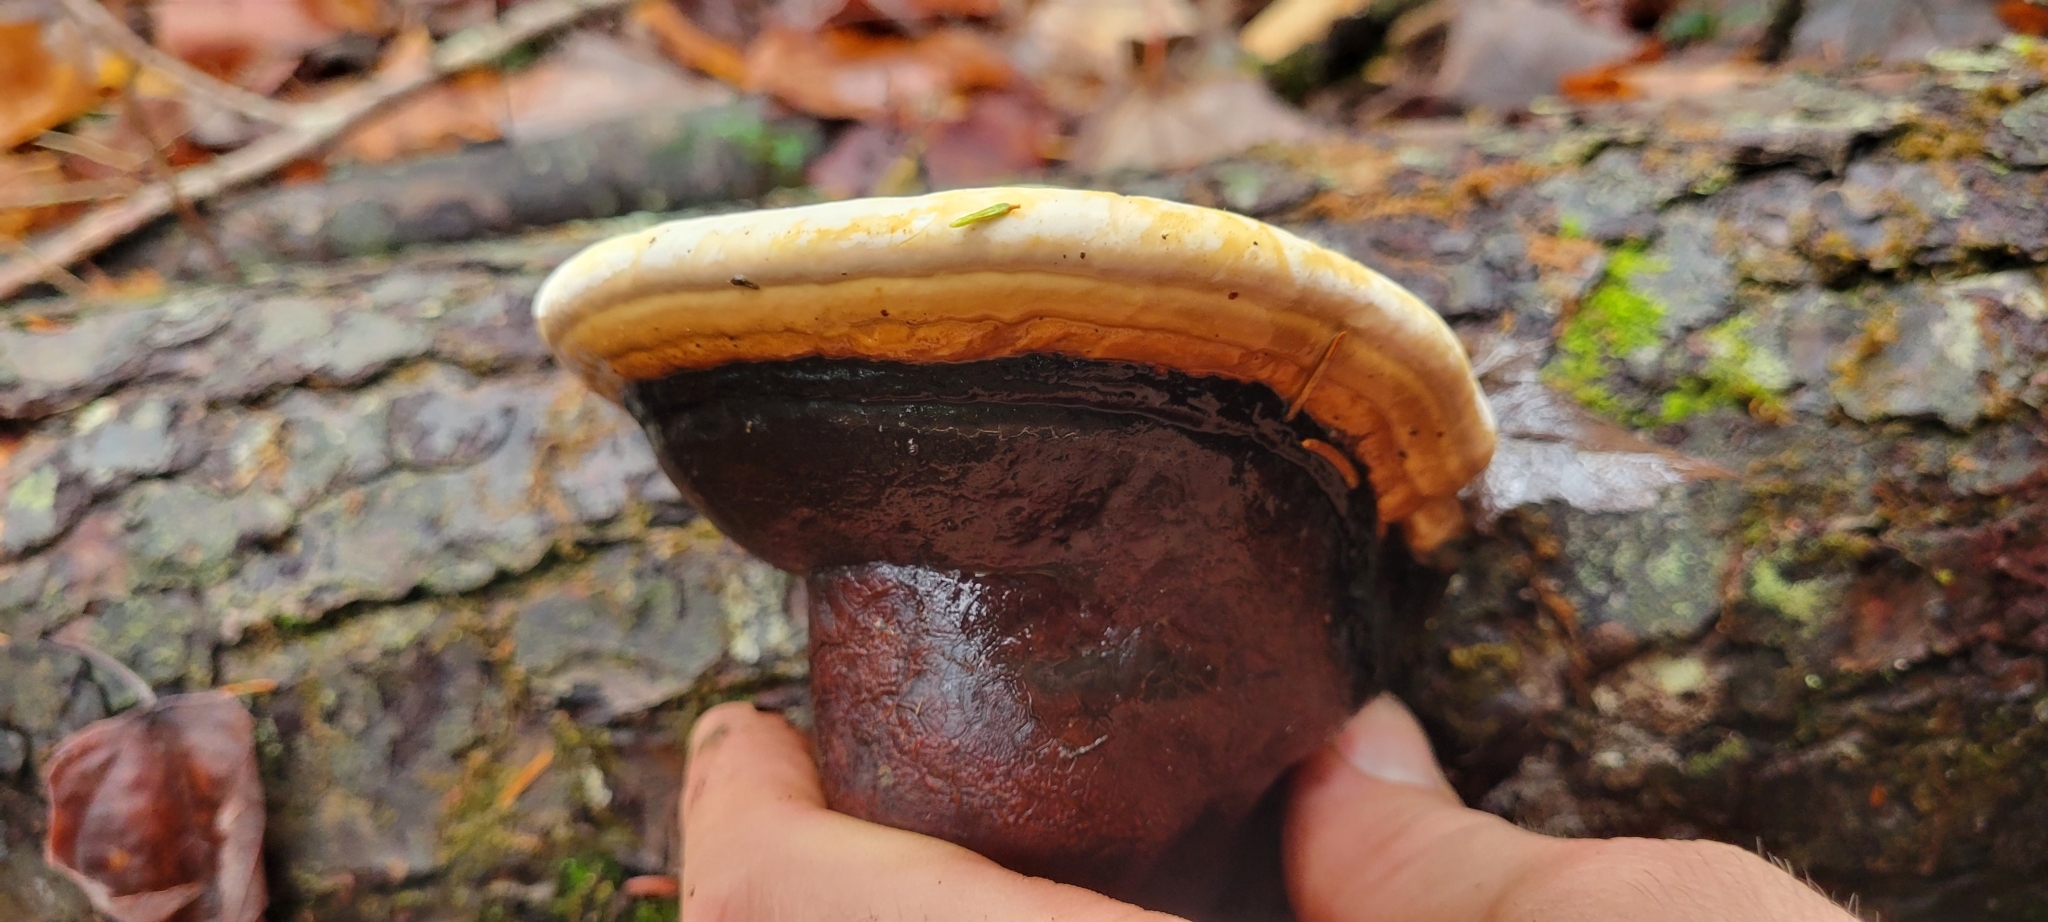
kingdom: Fungi
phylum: Basidiomycota
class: Agaricomycetes
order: Polyporales
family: Fomitopsidaceae
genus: Fomitopsis
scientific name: Fomitopsis mounceae
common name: Northern red belt
